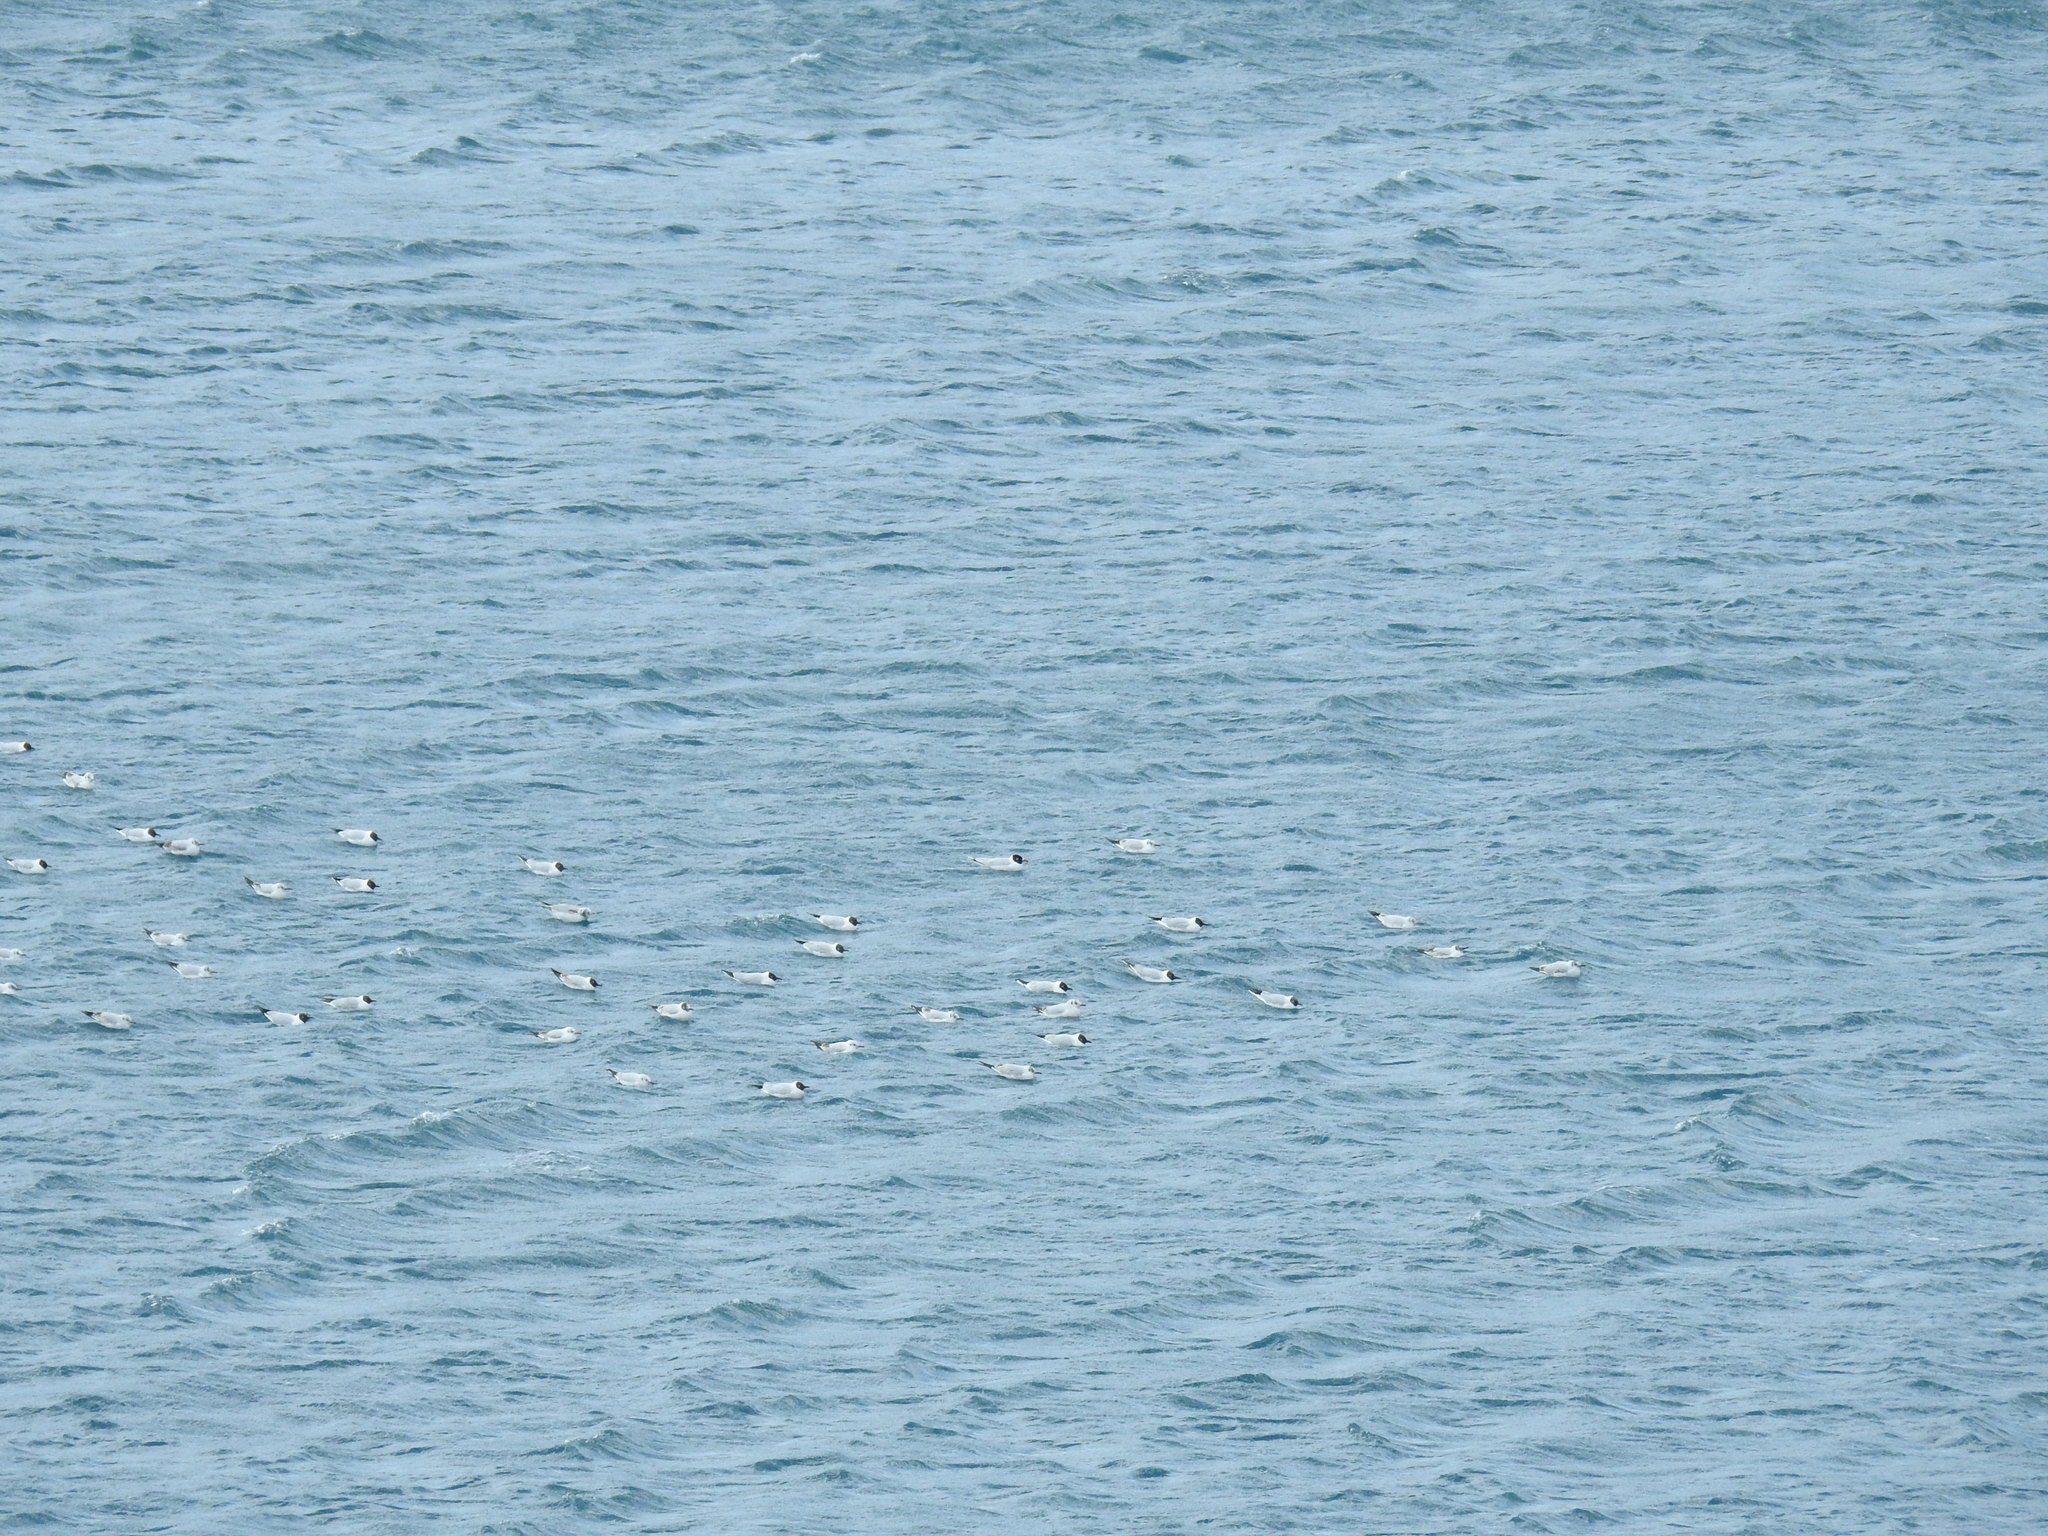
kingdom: Animalia
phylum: Chordata
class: Aves
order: Charadriiformes
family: Laridae
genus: Ichthyaetus
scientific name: Ichthyaetus melanocephalus
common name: Mediterranean gull
